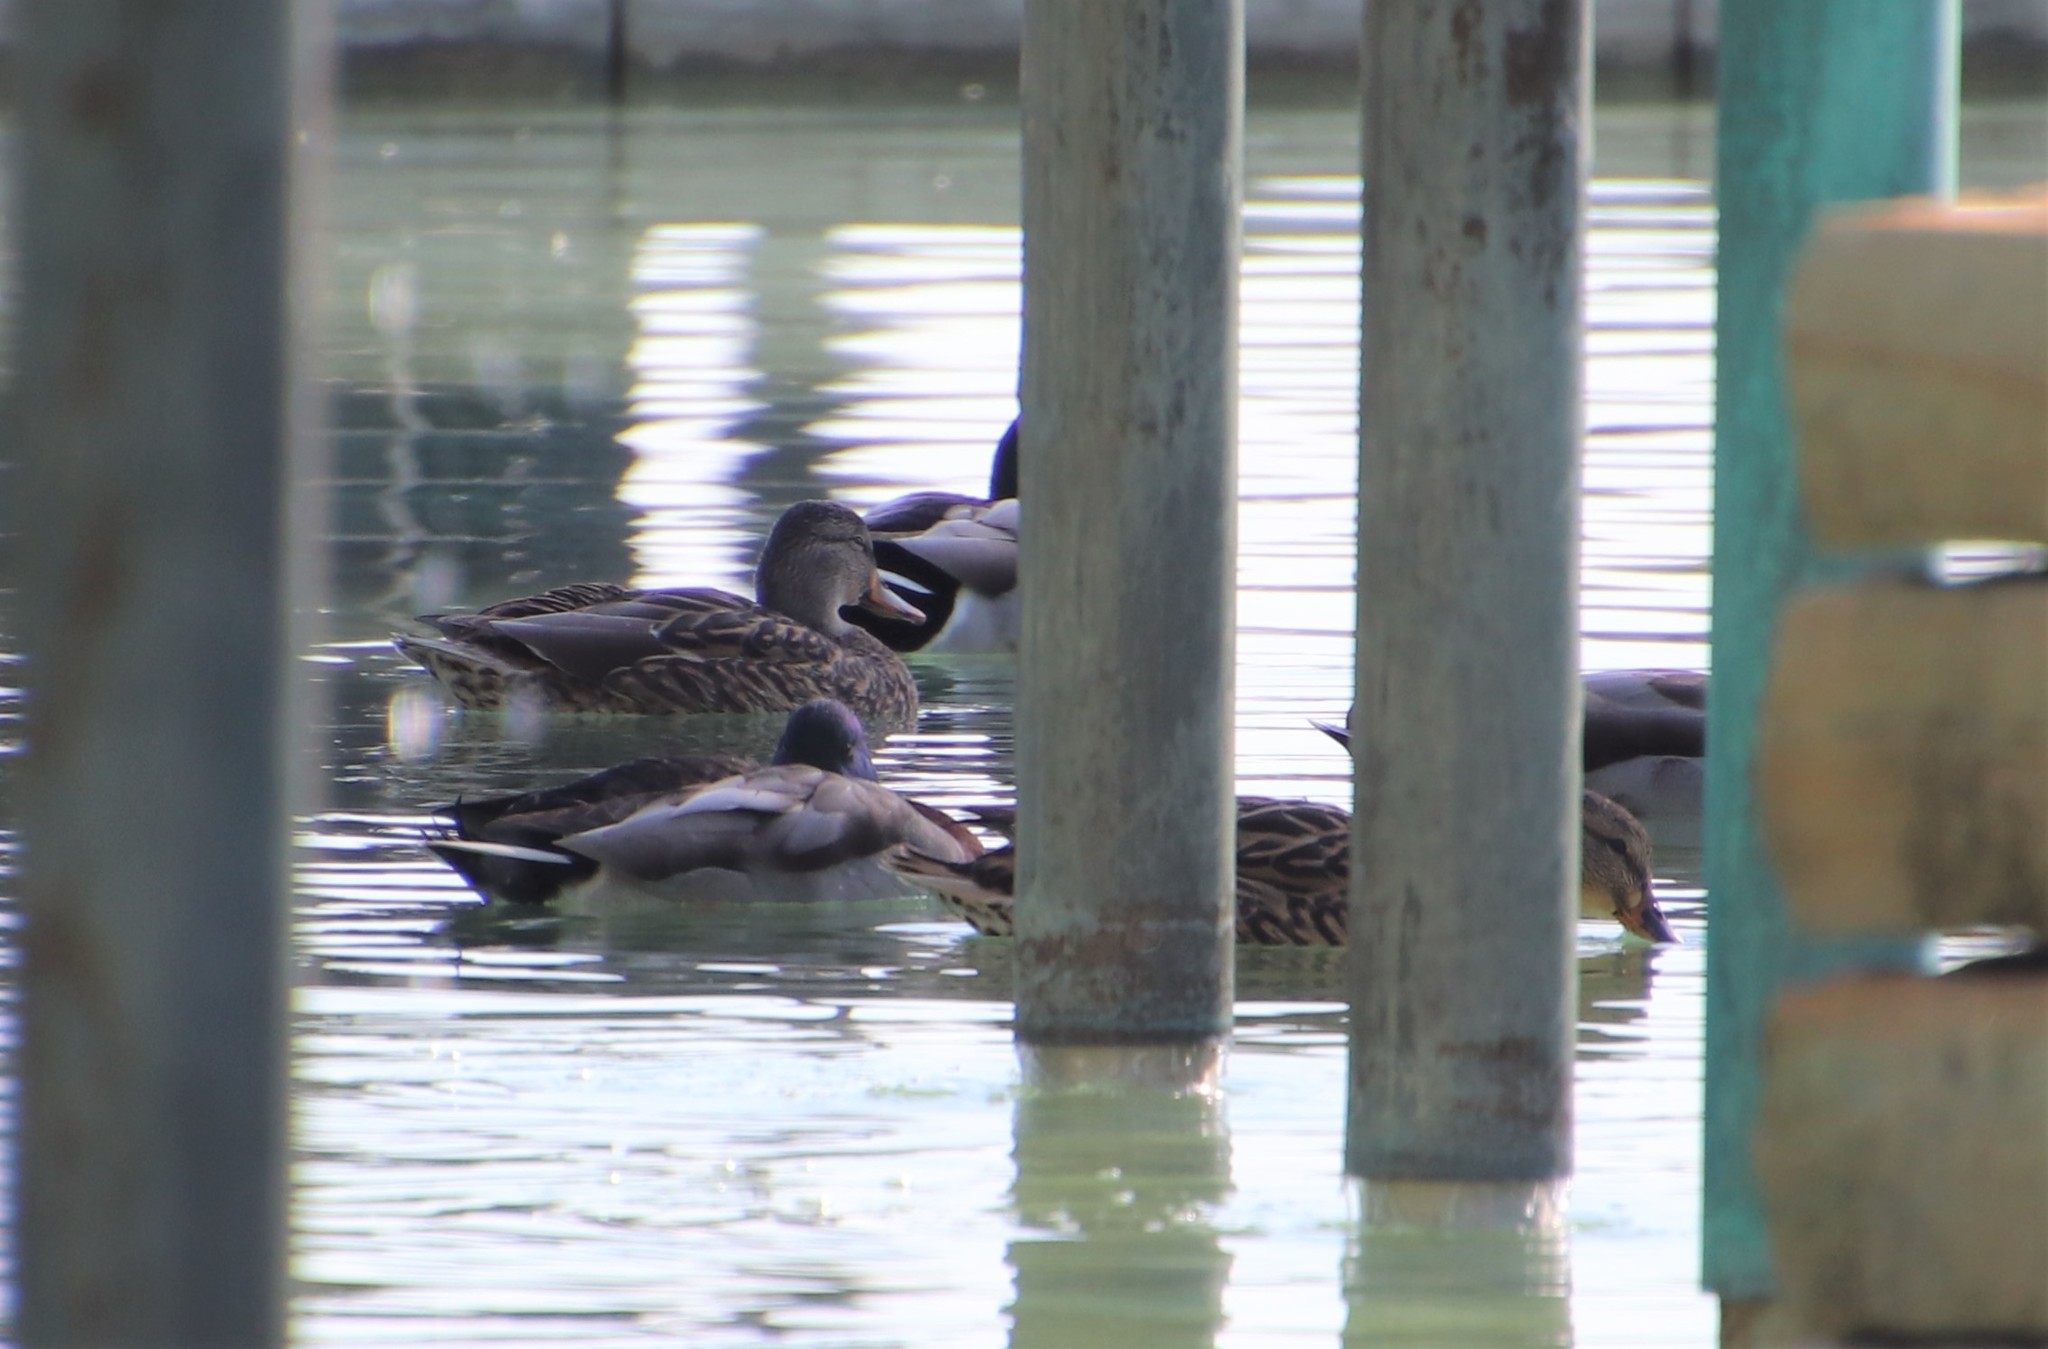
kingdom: Animalia
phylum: Chordata
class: Aves
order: Anseriformes
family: Anatidae
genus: Anas
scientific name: Anas platyrhynchos
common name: Mallard
